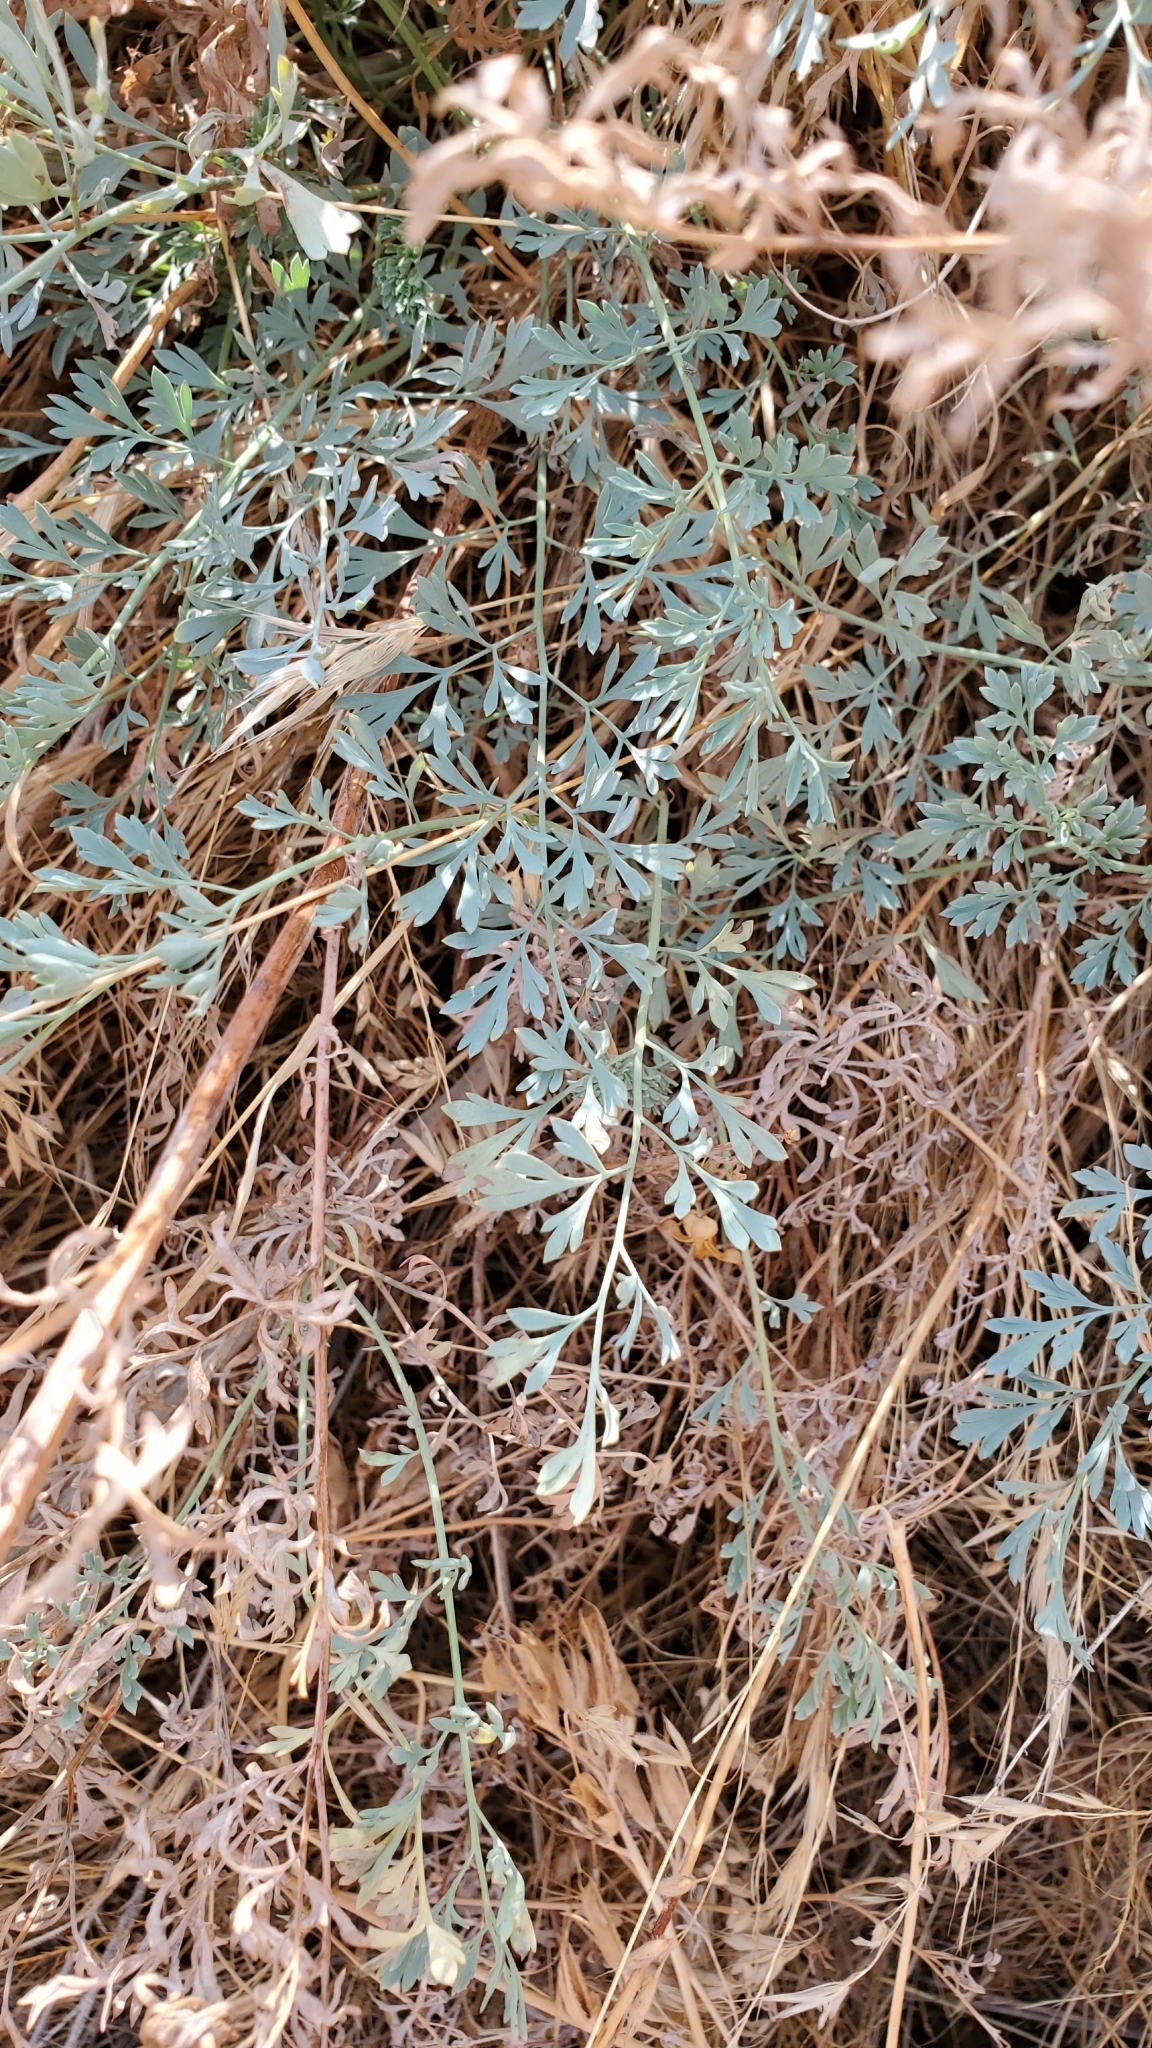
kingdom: Plantae
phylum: Tracheophyta
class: Magnoliopsida
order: Ranunculales
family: Papaveraceae
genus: Ehrendorferia
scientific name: Ehrendorferia chrysantha
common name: Golden eardrops
